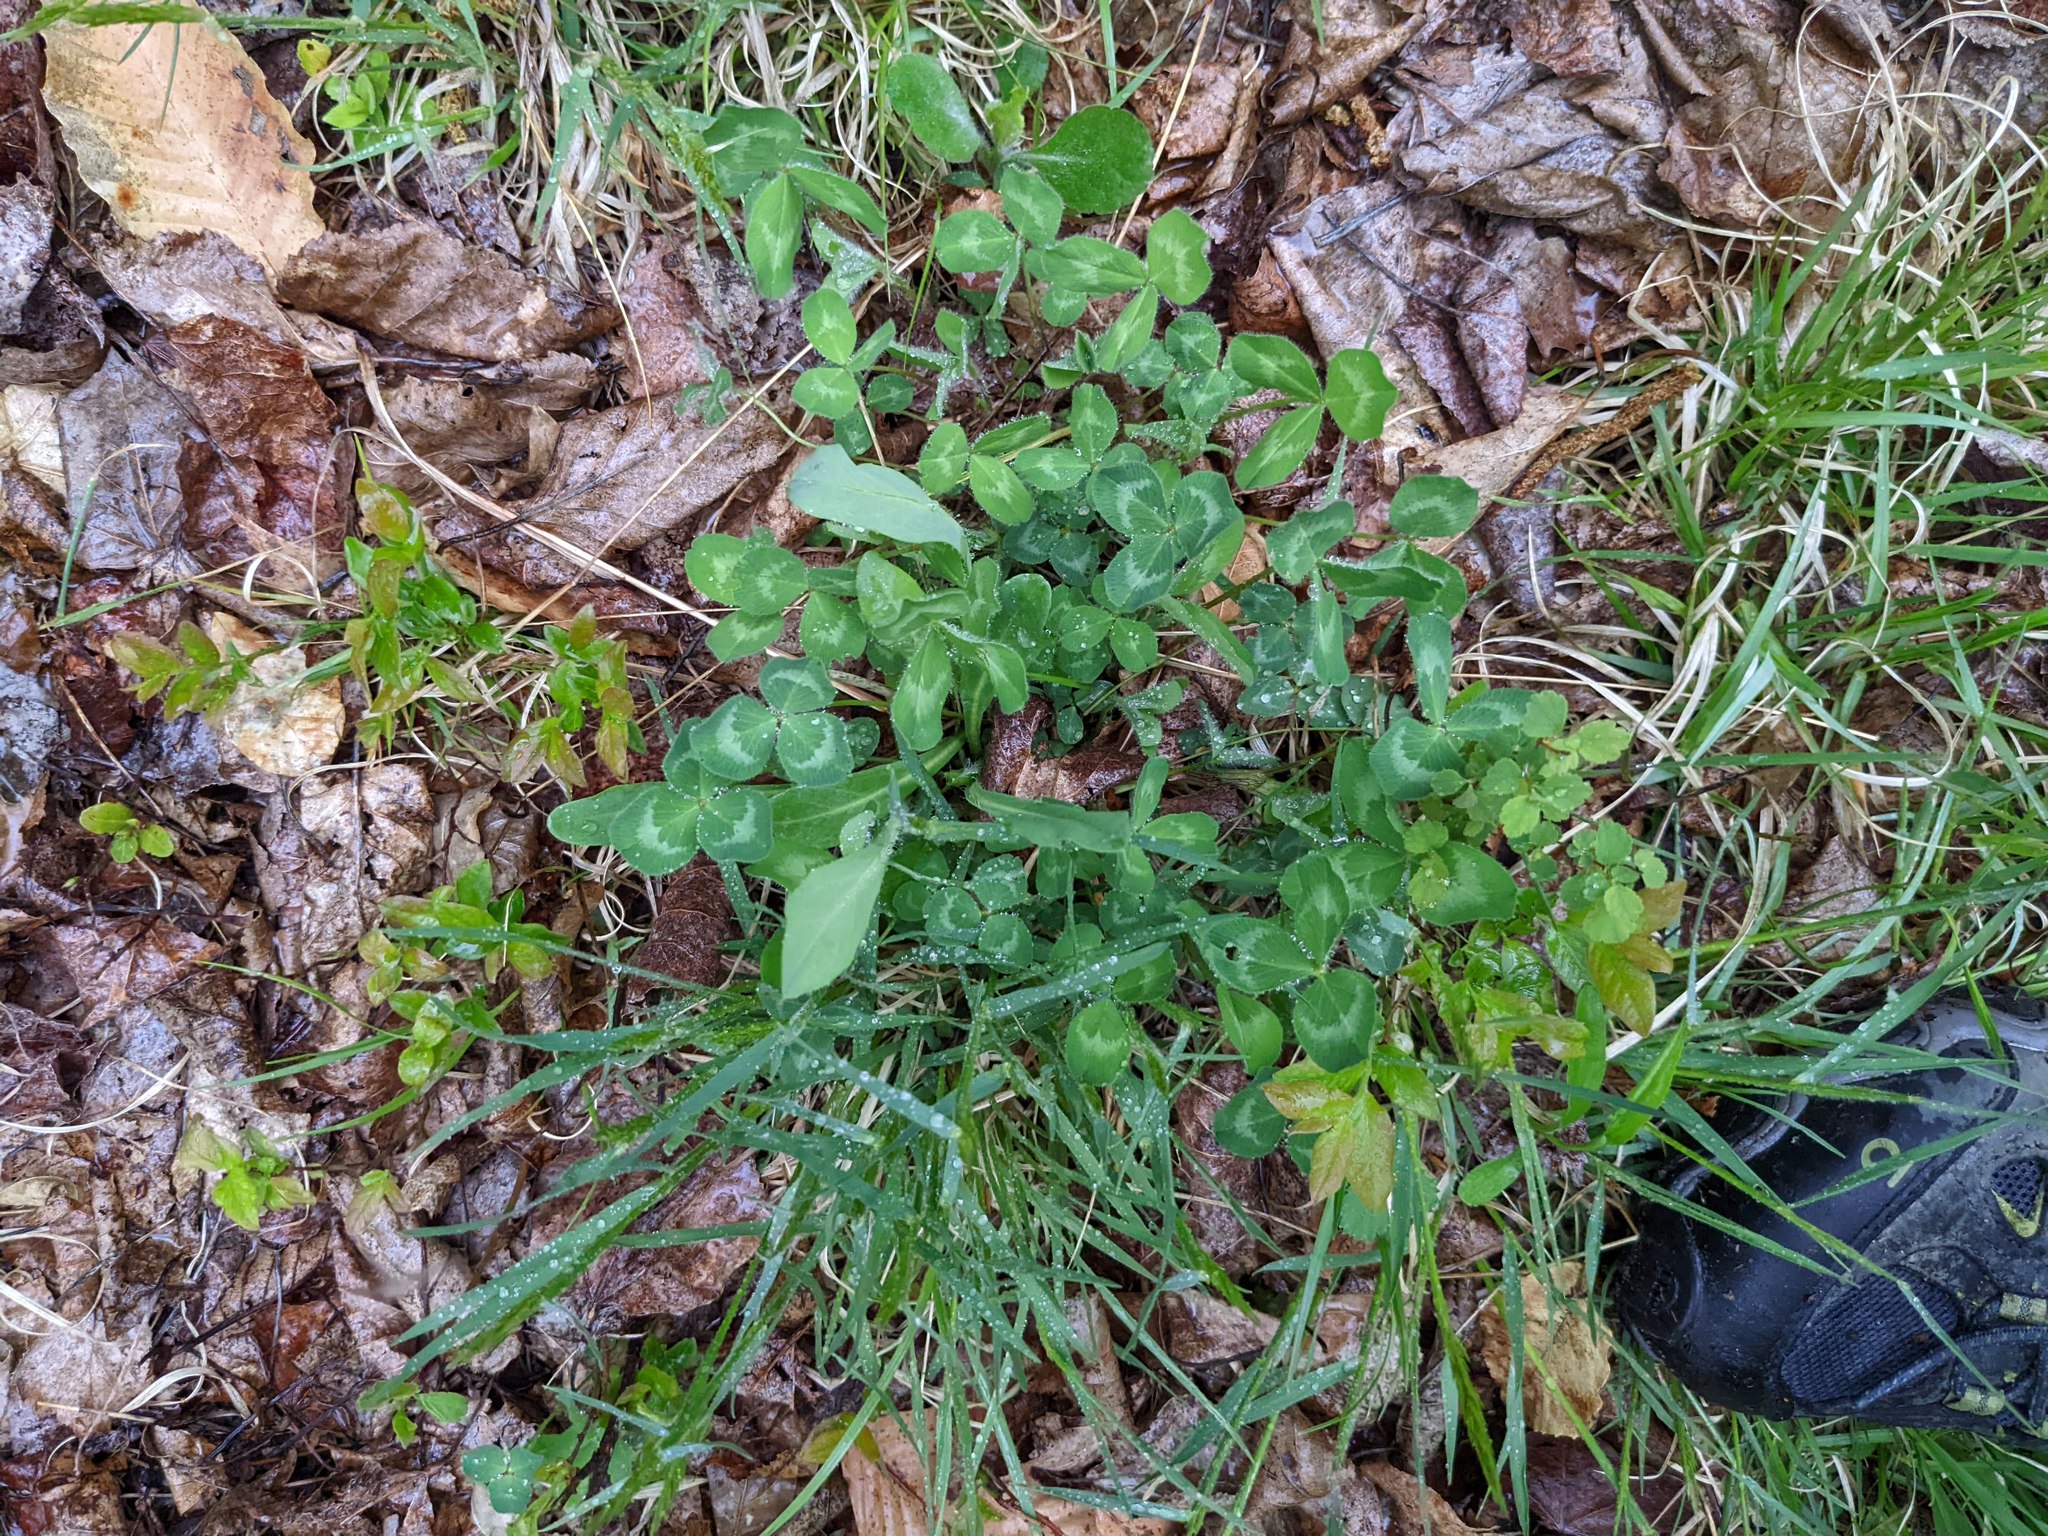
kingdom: Plantae
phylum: Tracheophyta
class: Magnoliopsida
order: Fabales
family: Fabaceae
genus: Trifolium
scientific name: Trifolium pratense
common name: Red clover
